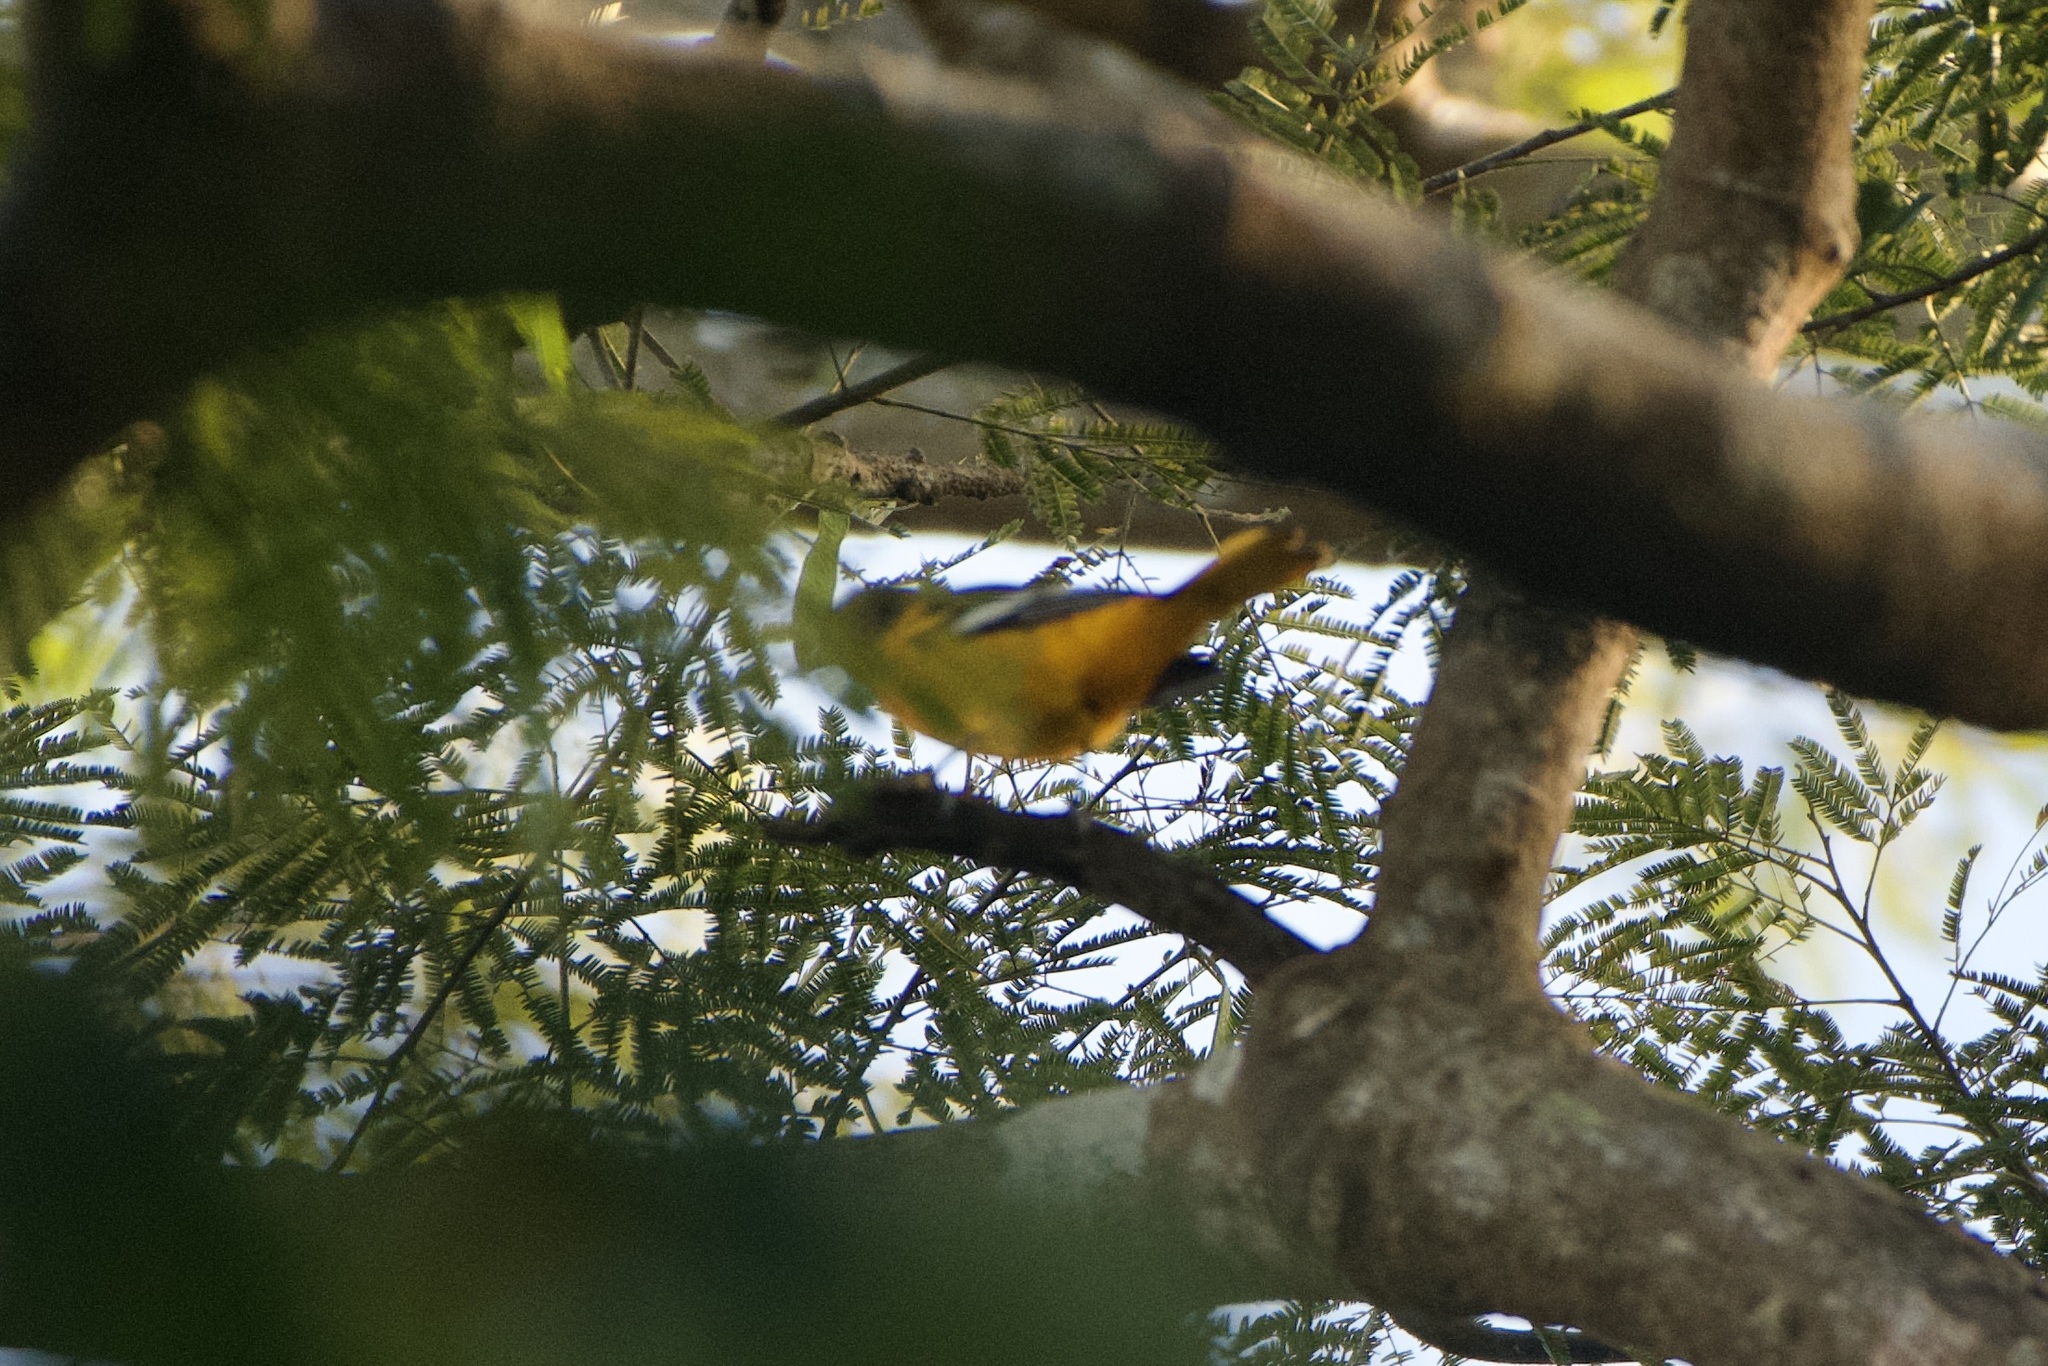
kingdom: Animalia
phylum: Chordata
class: Aves
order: Passeriformes
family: Icteridae
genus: Icterus
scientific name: Icterus galbula
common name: Baltimore oriole
